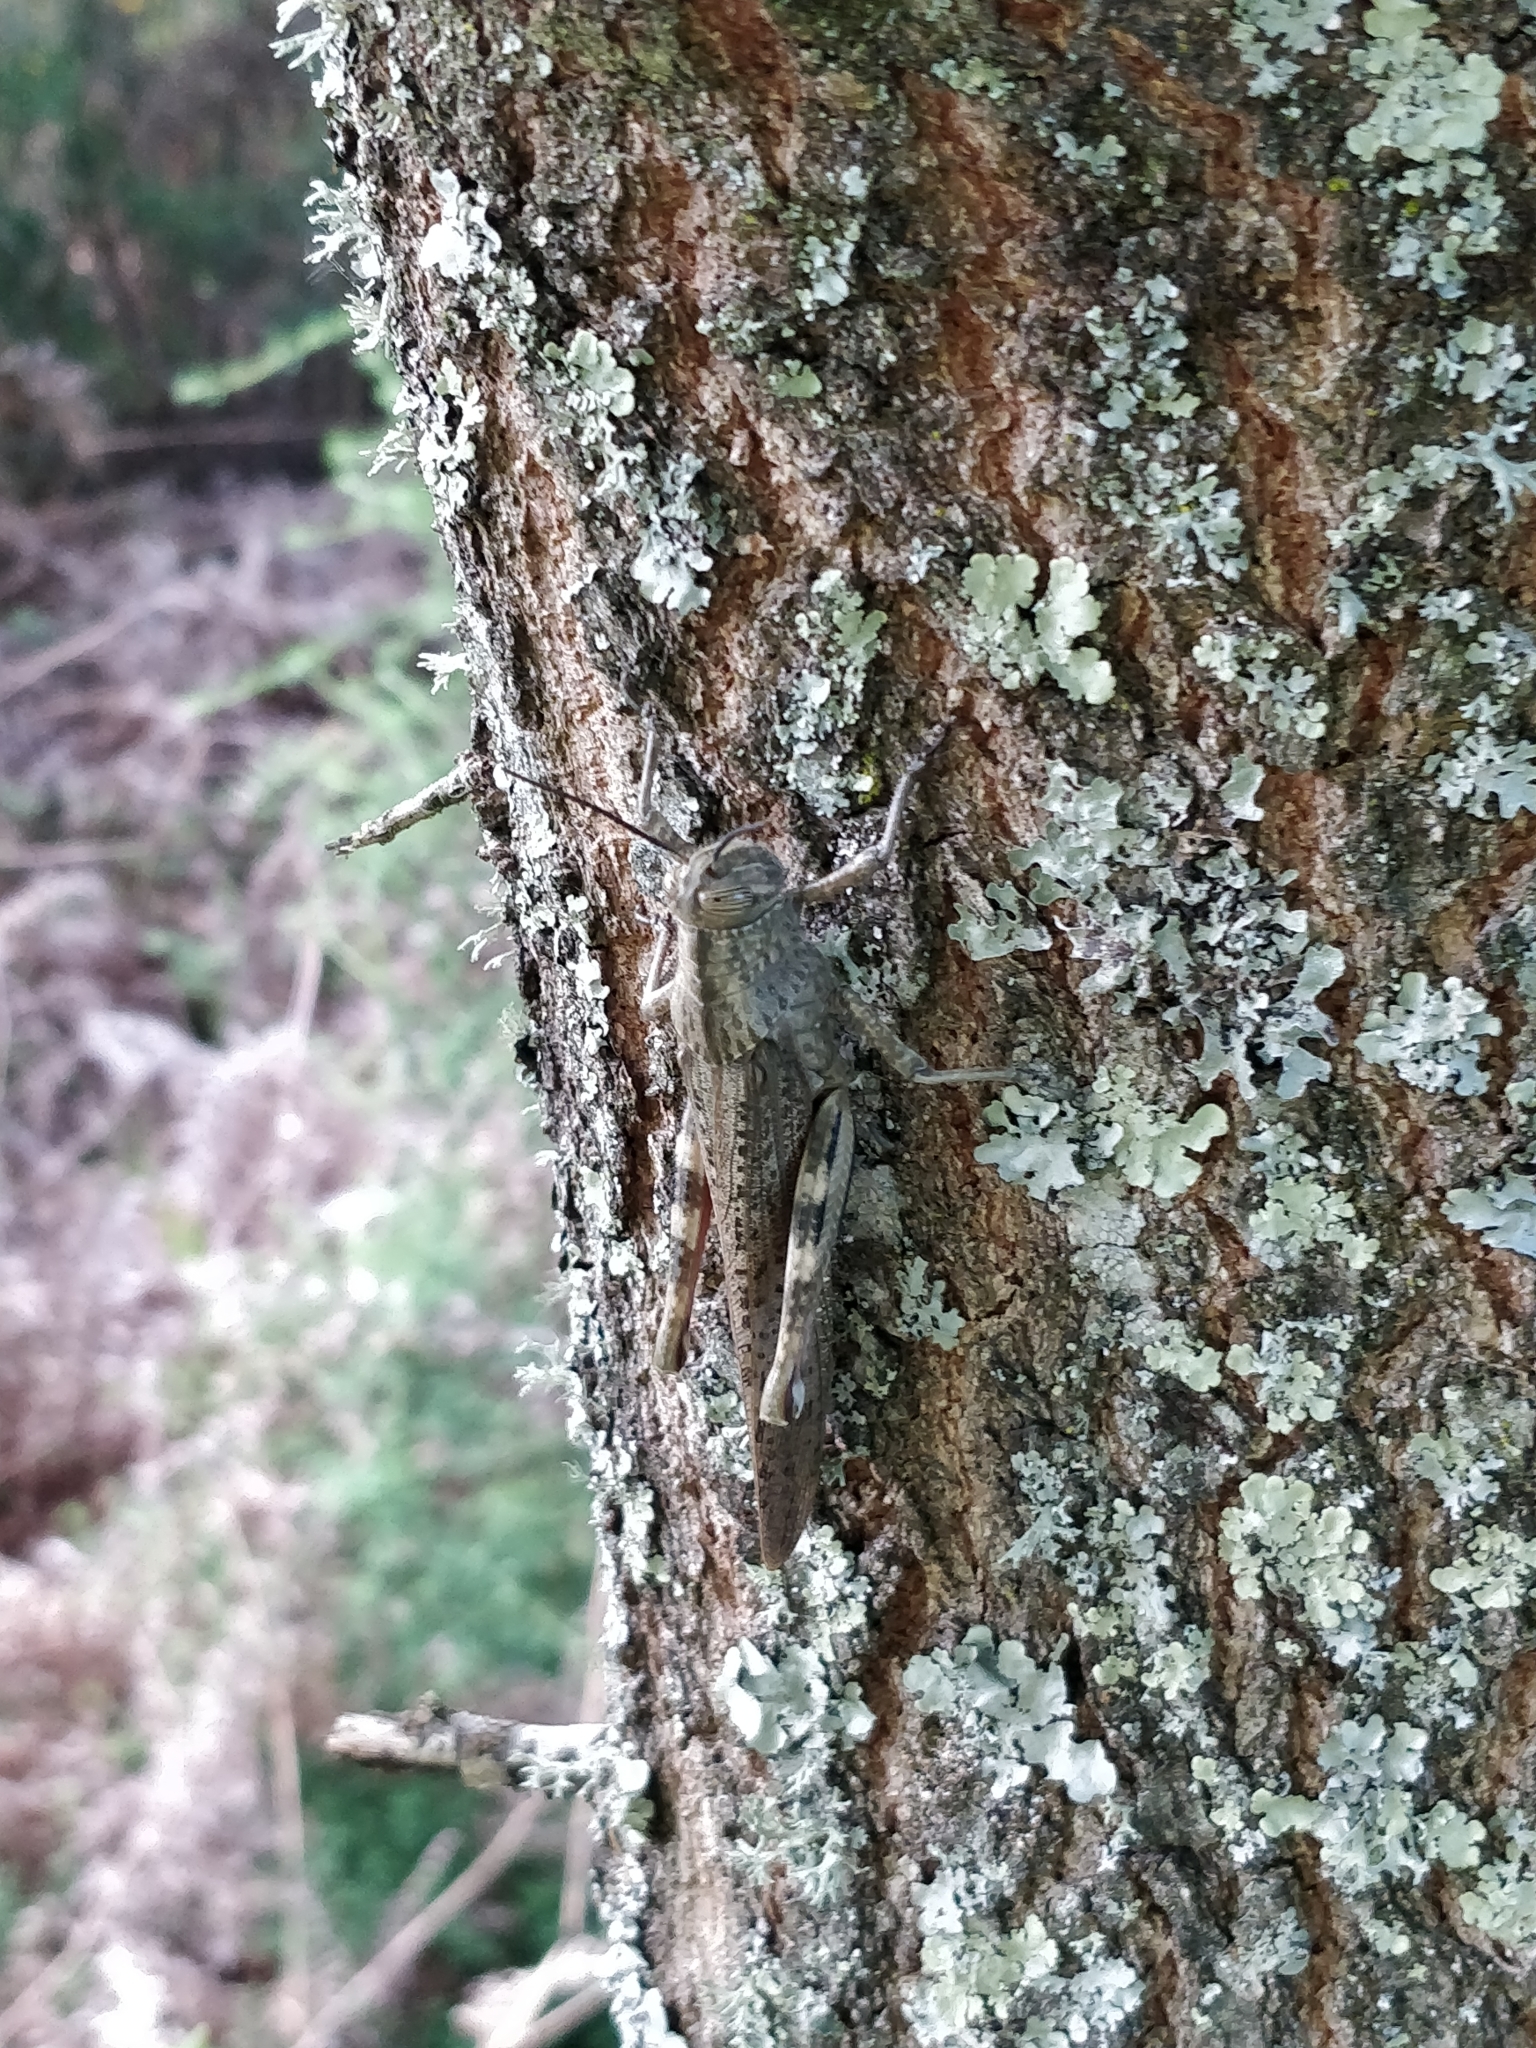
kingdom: Animalia
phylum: Arthropoda
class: Insecta
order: Orthoptera
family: Acrididae
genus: Anacridium
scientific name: Anacridium aegyptium
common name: Egyptian grasshopper
